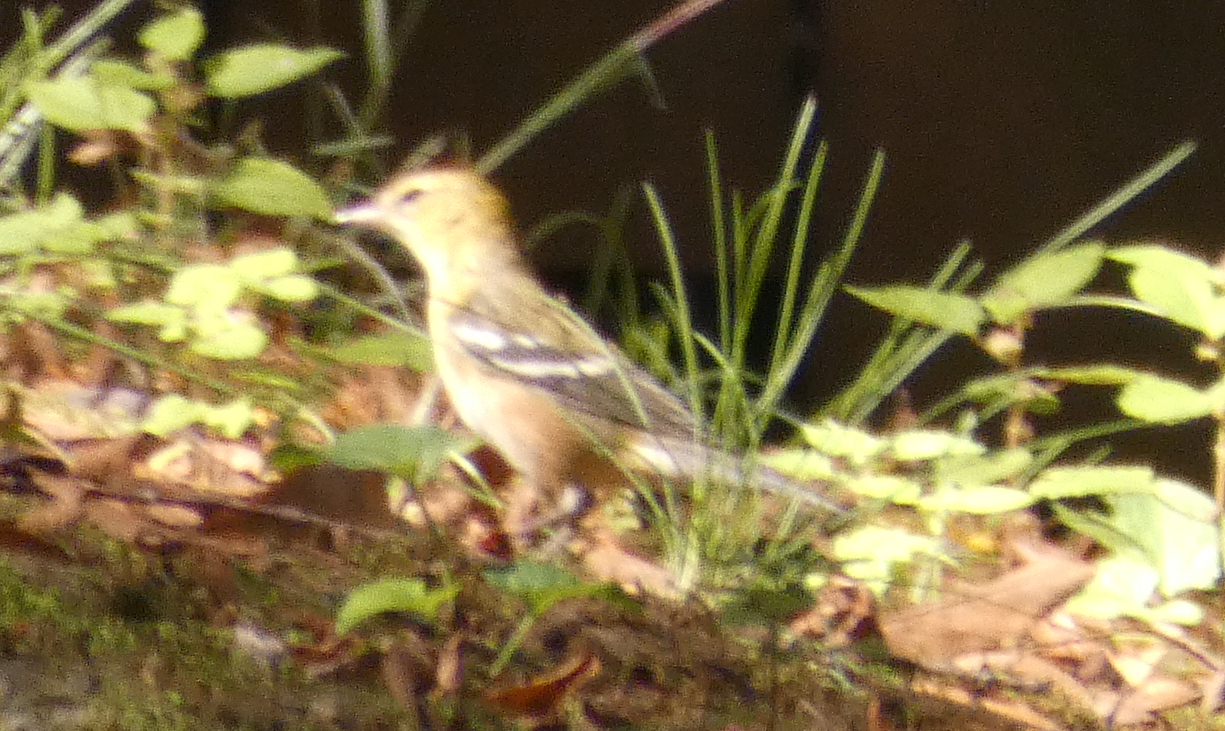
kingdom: Animalia
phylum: Chordata
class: Aves
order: Passeriformes
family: Parulidae
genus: Setophaga
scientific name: Setophaga castanea
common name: Bay-breasted warbler
